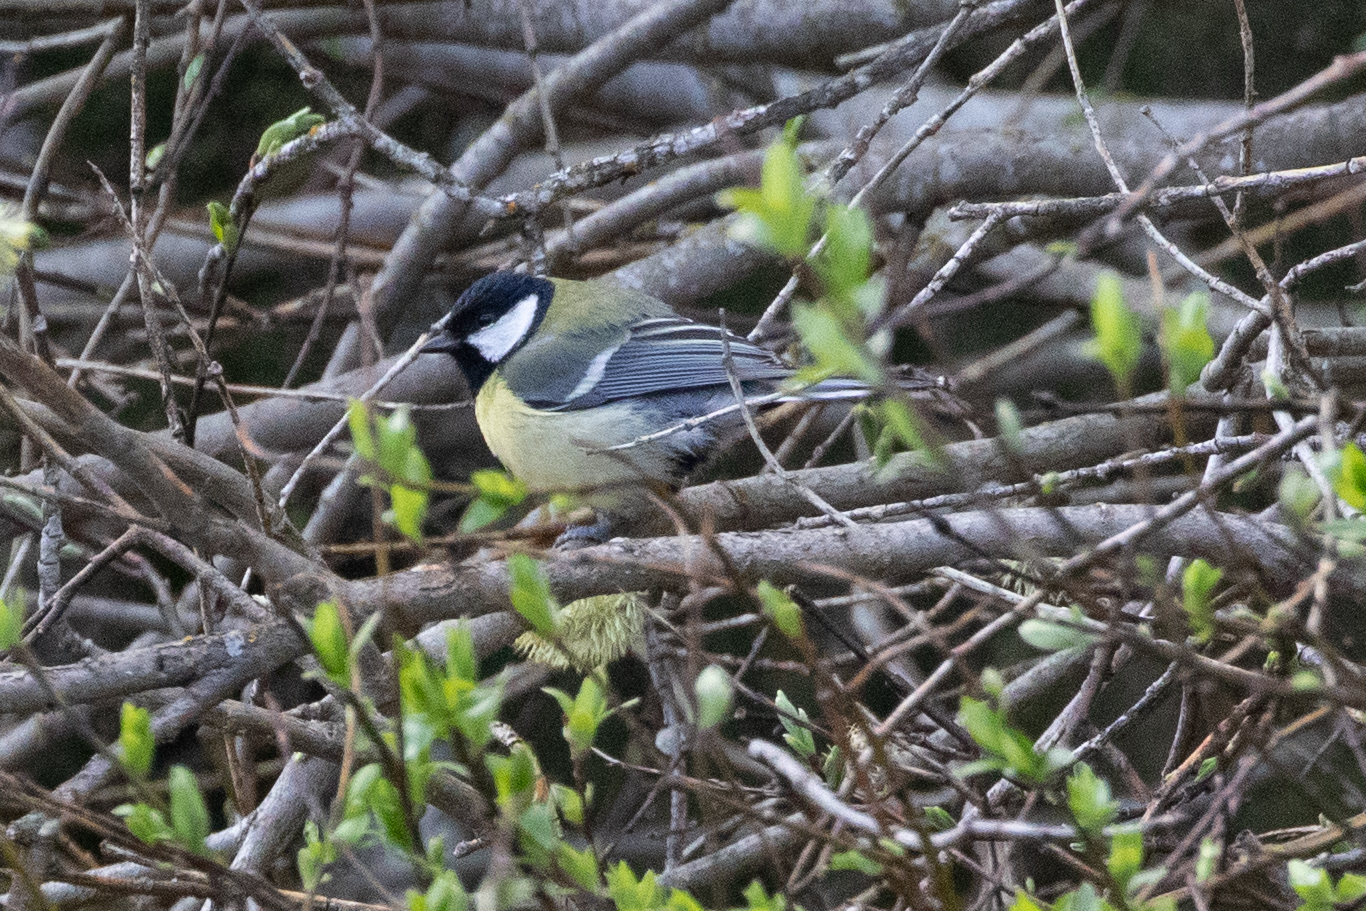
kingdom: Animalia
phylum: Chordata
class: Aves
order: Passeriformes
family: Paridae
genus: Parus
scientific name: Parus major
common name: Great tit
